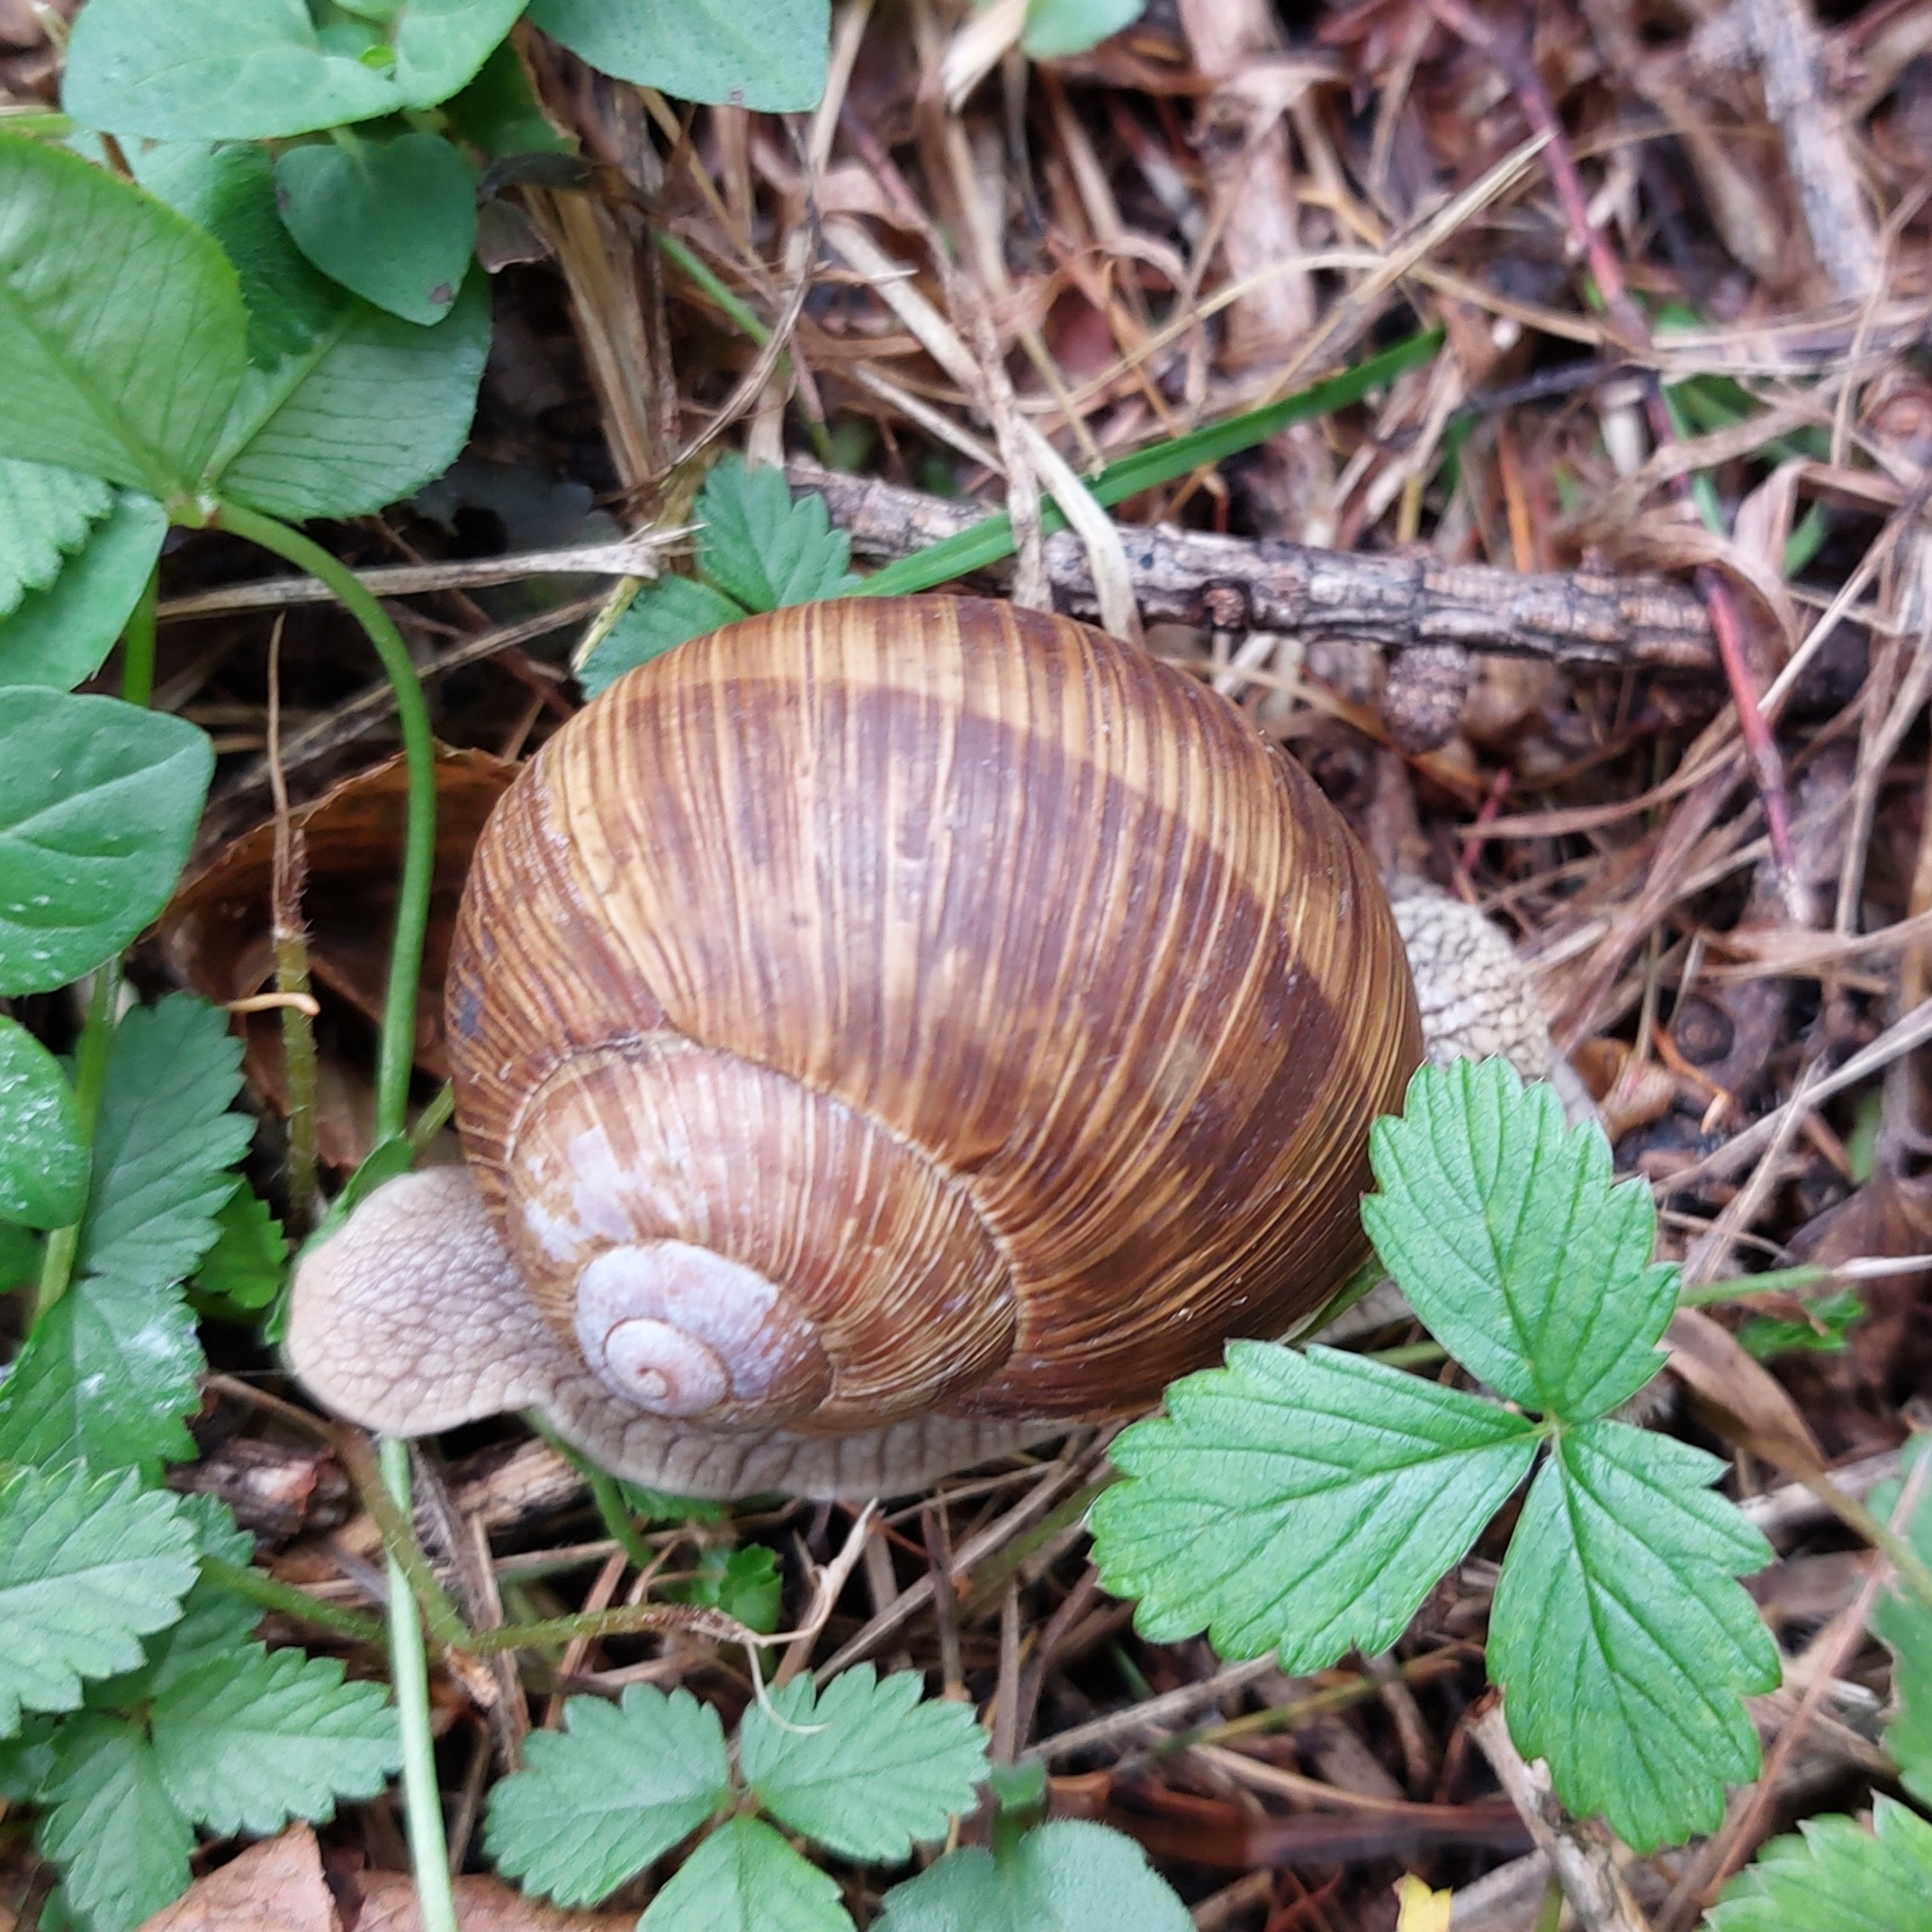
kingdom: Animalia
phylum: Mollusca
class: Gastropoda
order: Stylommatophora
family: Helicidae
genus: Helix
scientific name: Helix pomatia
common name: Roman snail
